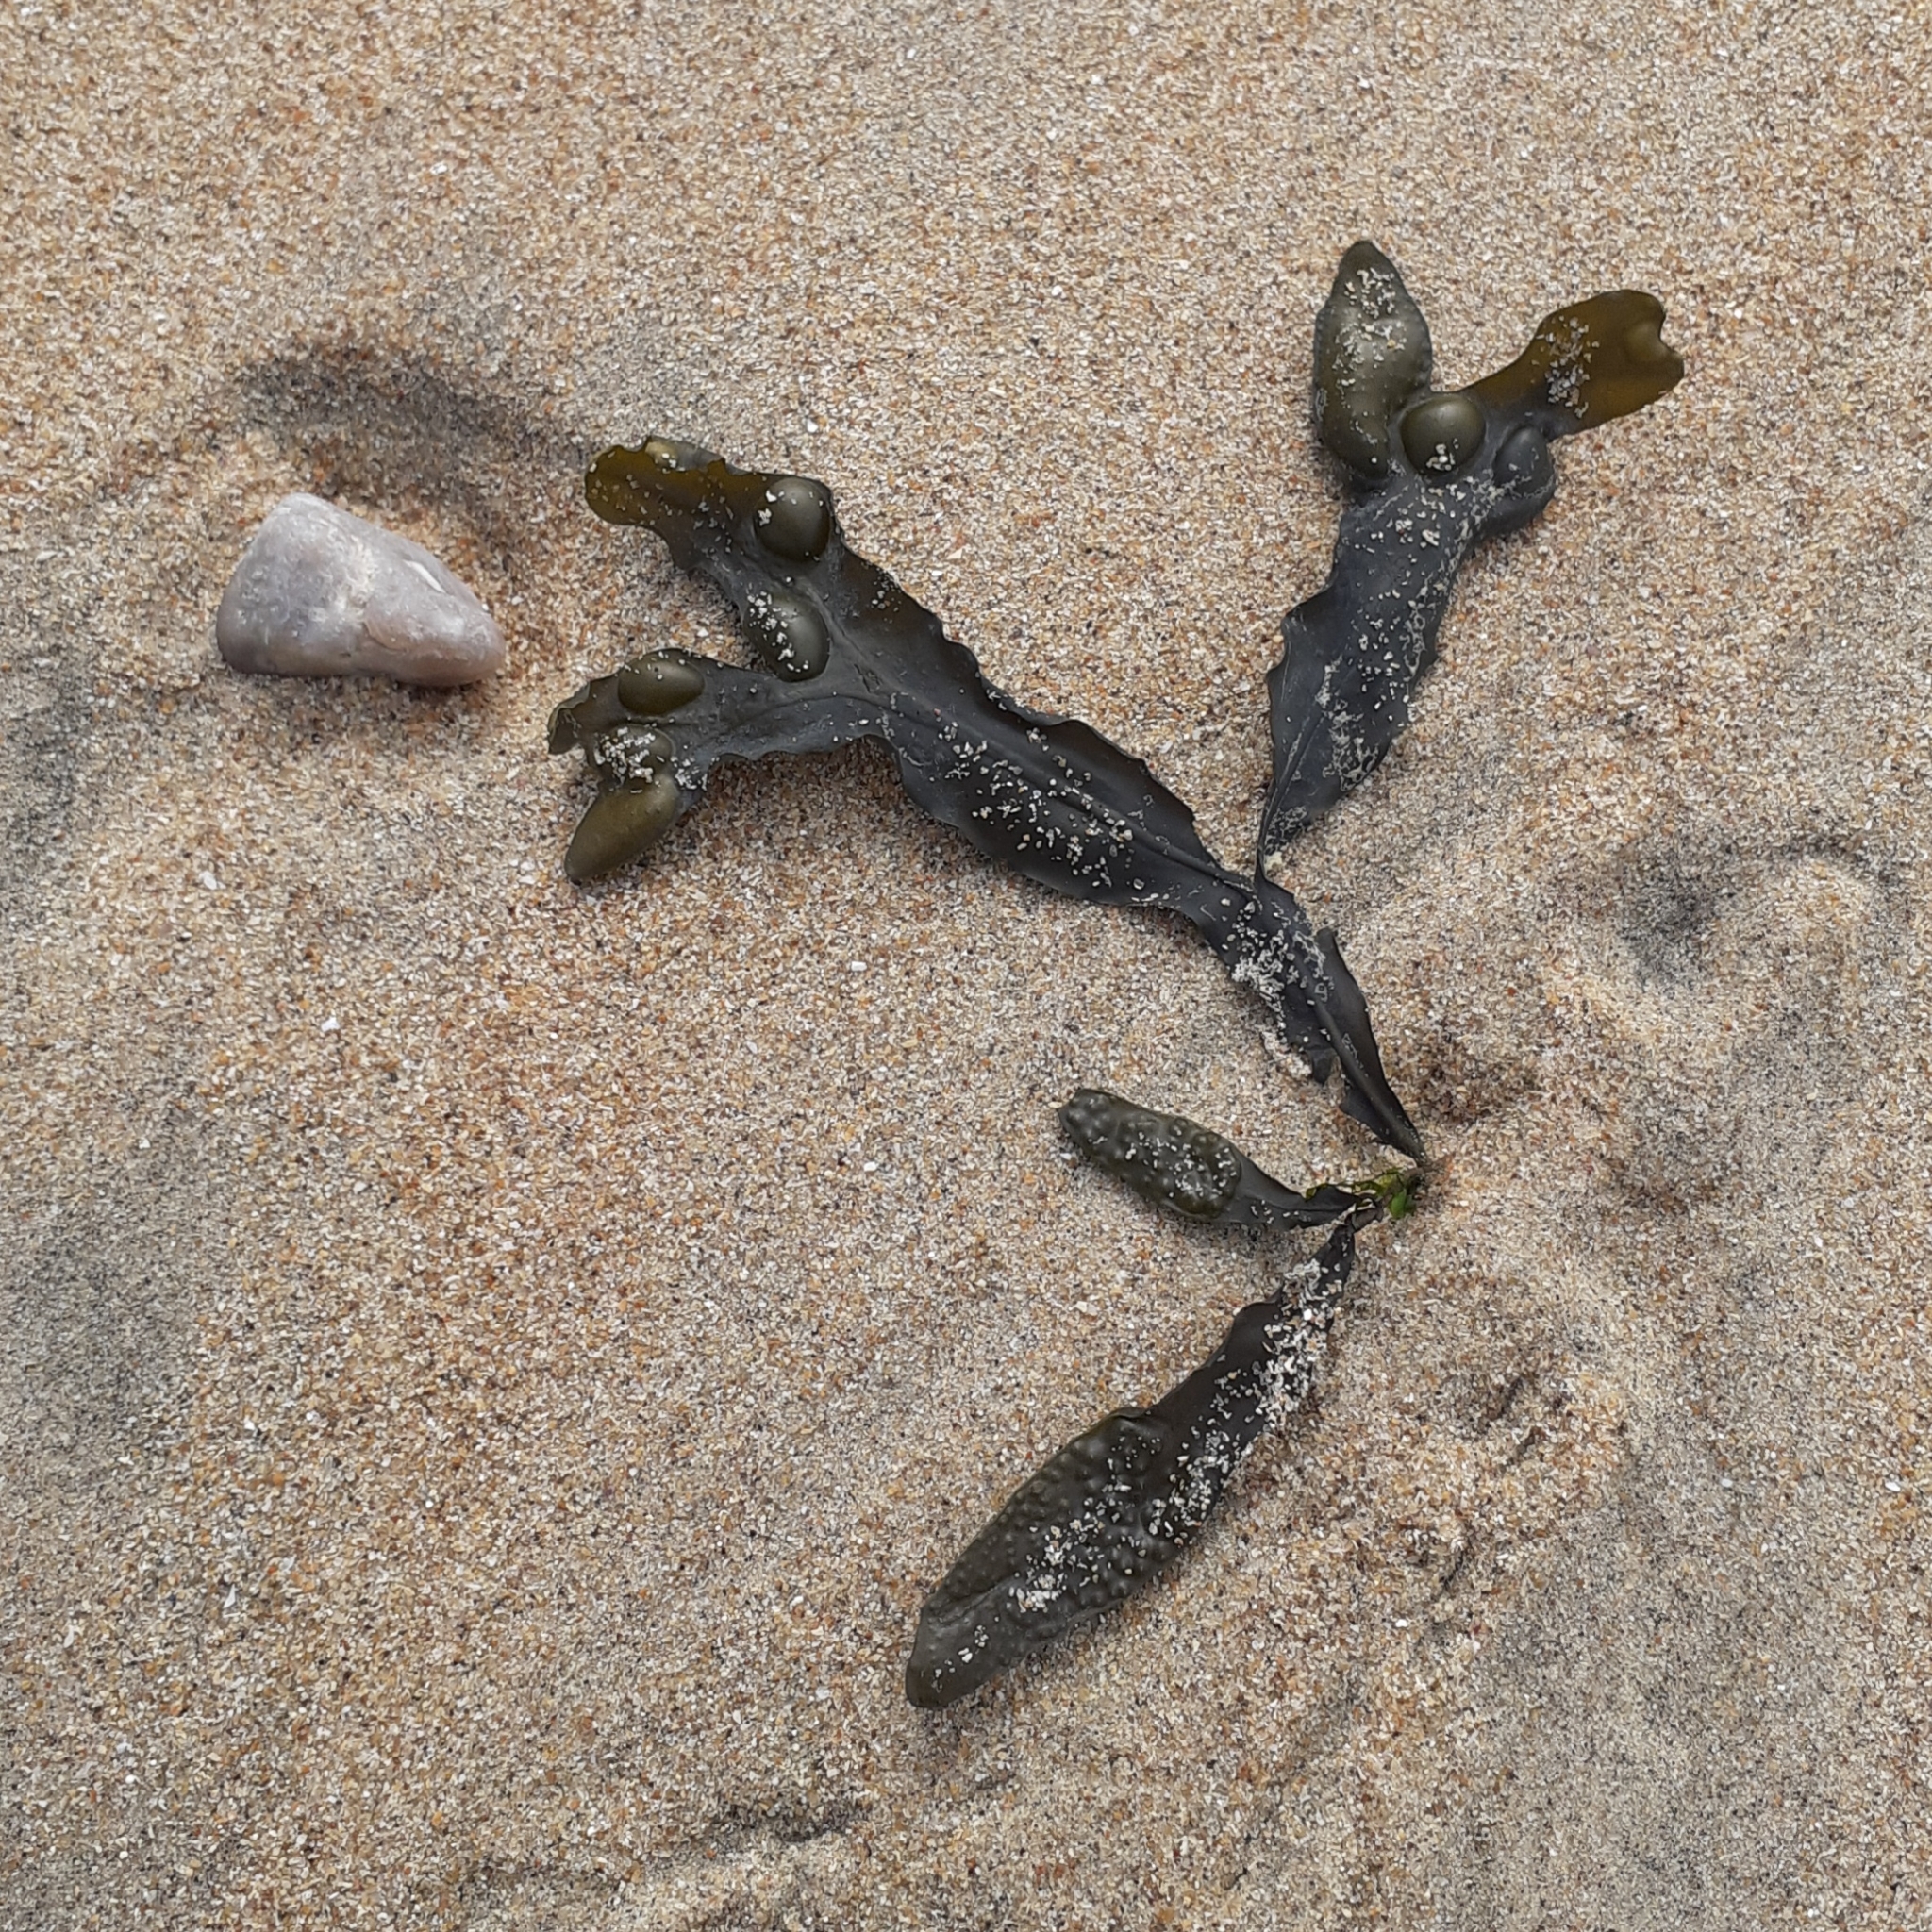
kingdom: Chromista
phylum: Ochrophyta
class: Phaeophyceae
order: Fucales
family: Fucaceae
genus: Fucus
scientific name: Fucus vesiculosus
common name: Bladder wrack
